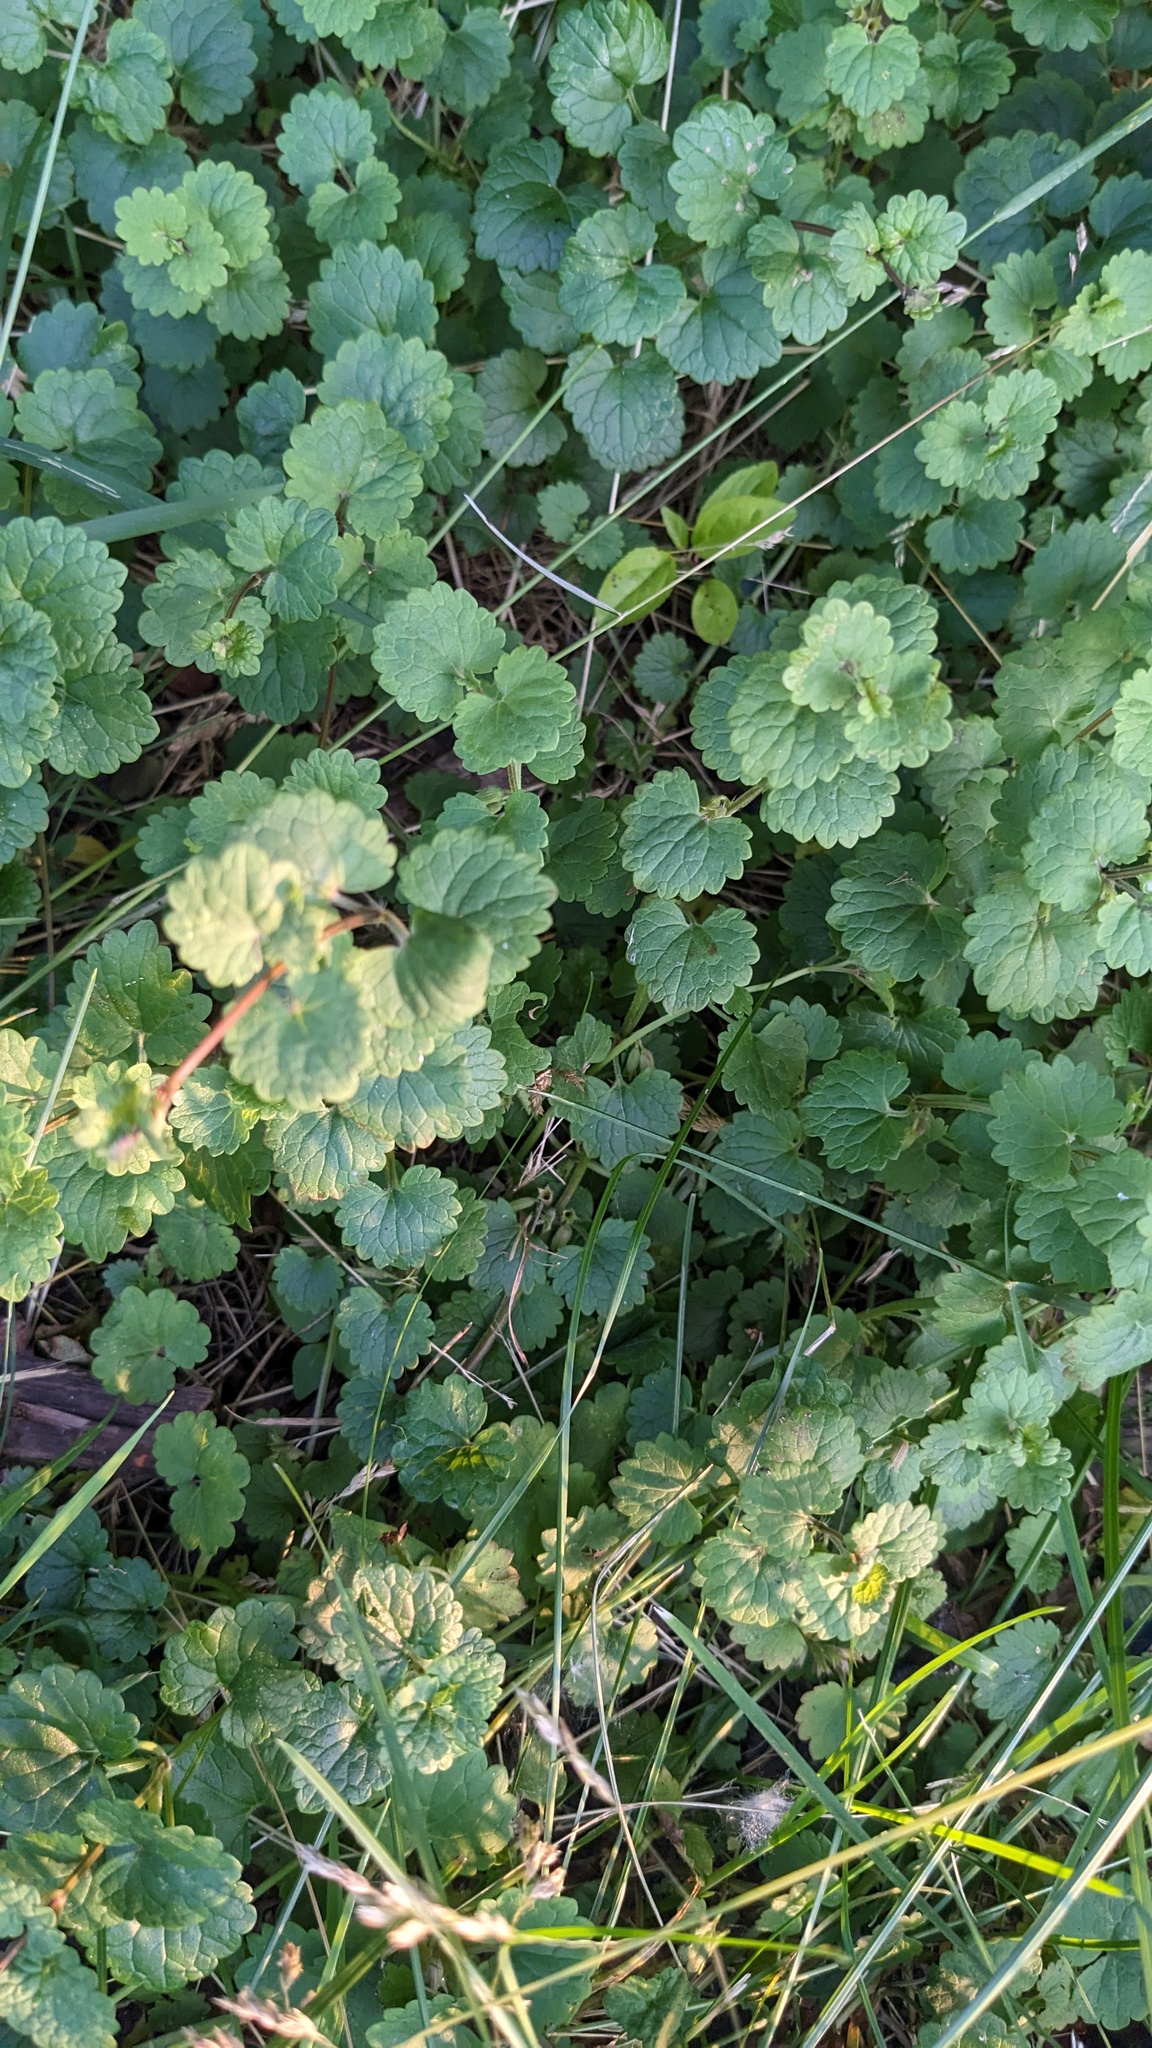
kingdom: Plantae
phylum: Tracheophyta
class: Magnoliopsida
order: Lamiales
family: Lamiaceae
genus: Glechoma
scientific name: Glechoma hederacea
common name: Ground ivy
